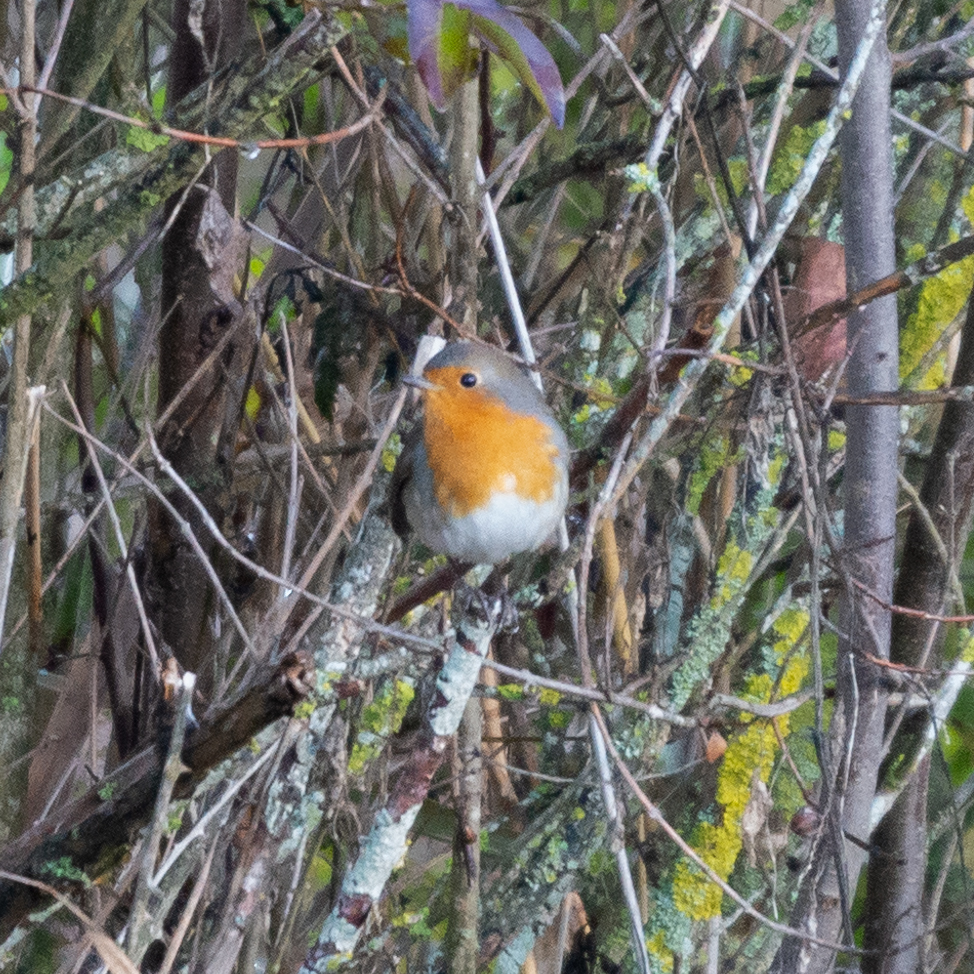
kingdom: Animalia
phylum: Chordata
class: Aves
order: Passeriformes
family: Muscicapidae
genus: Erithacus
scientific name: Erithacus rubecula
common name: European robin
